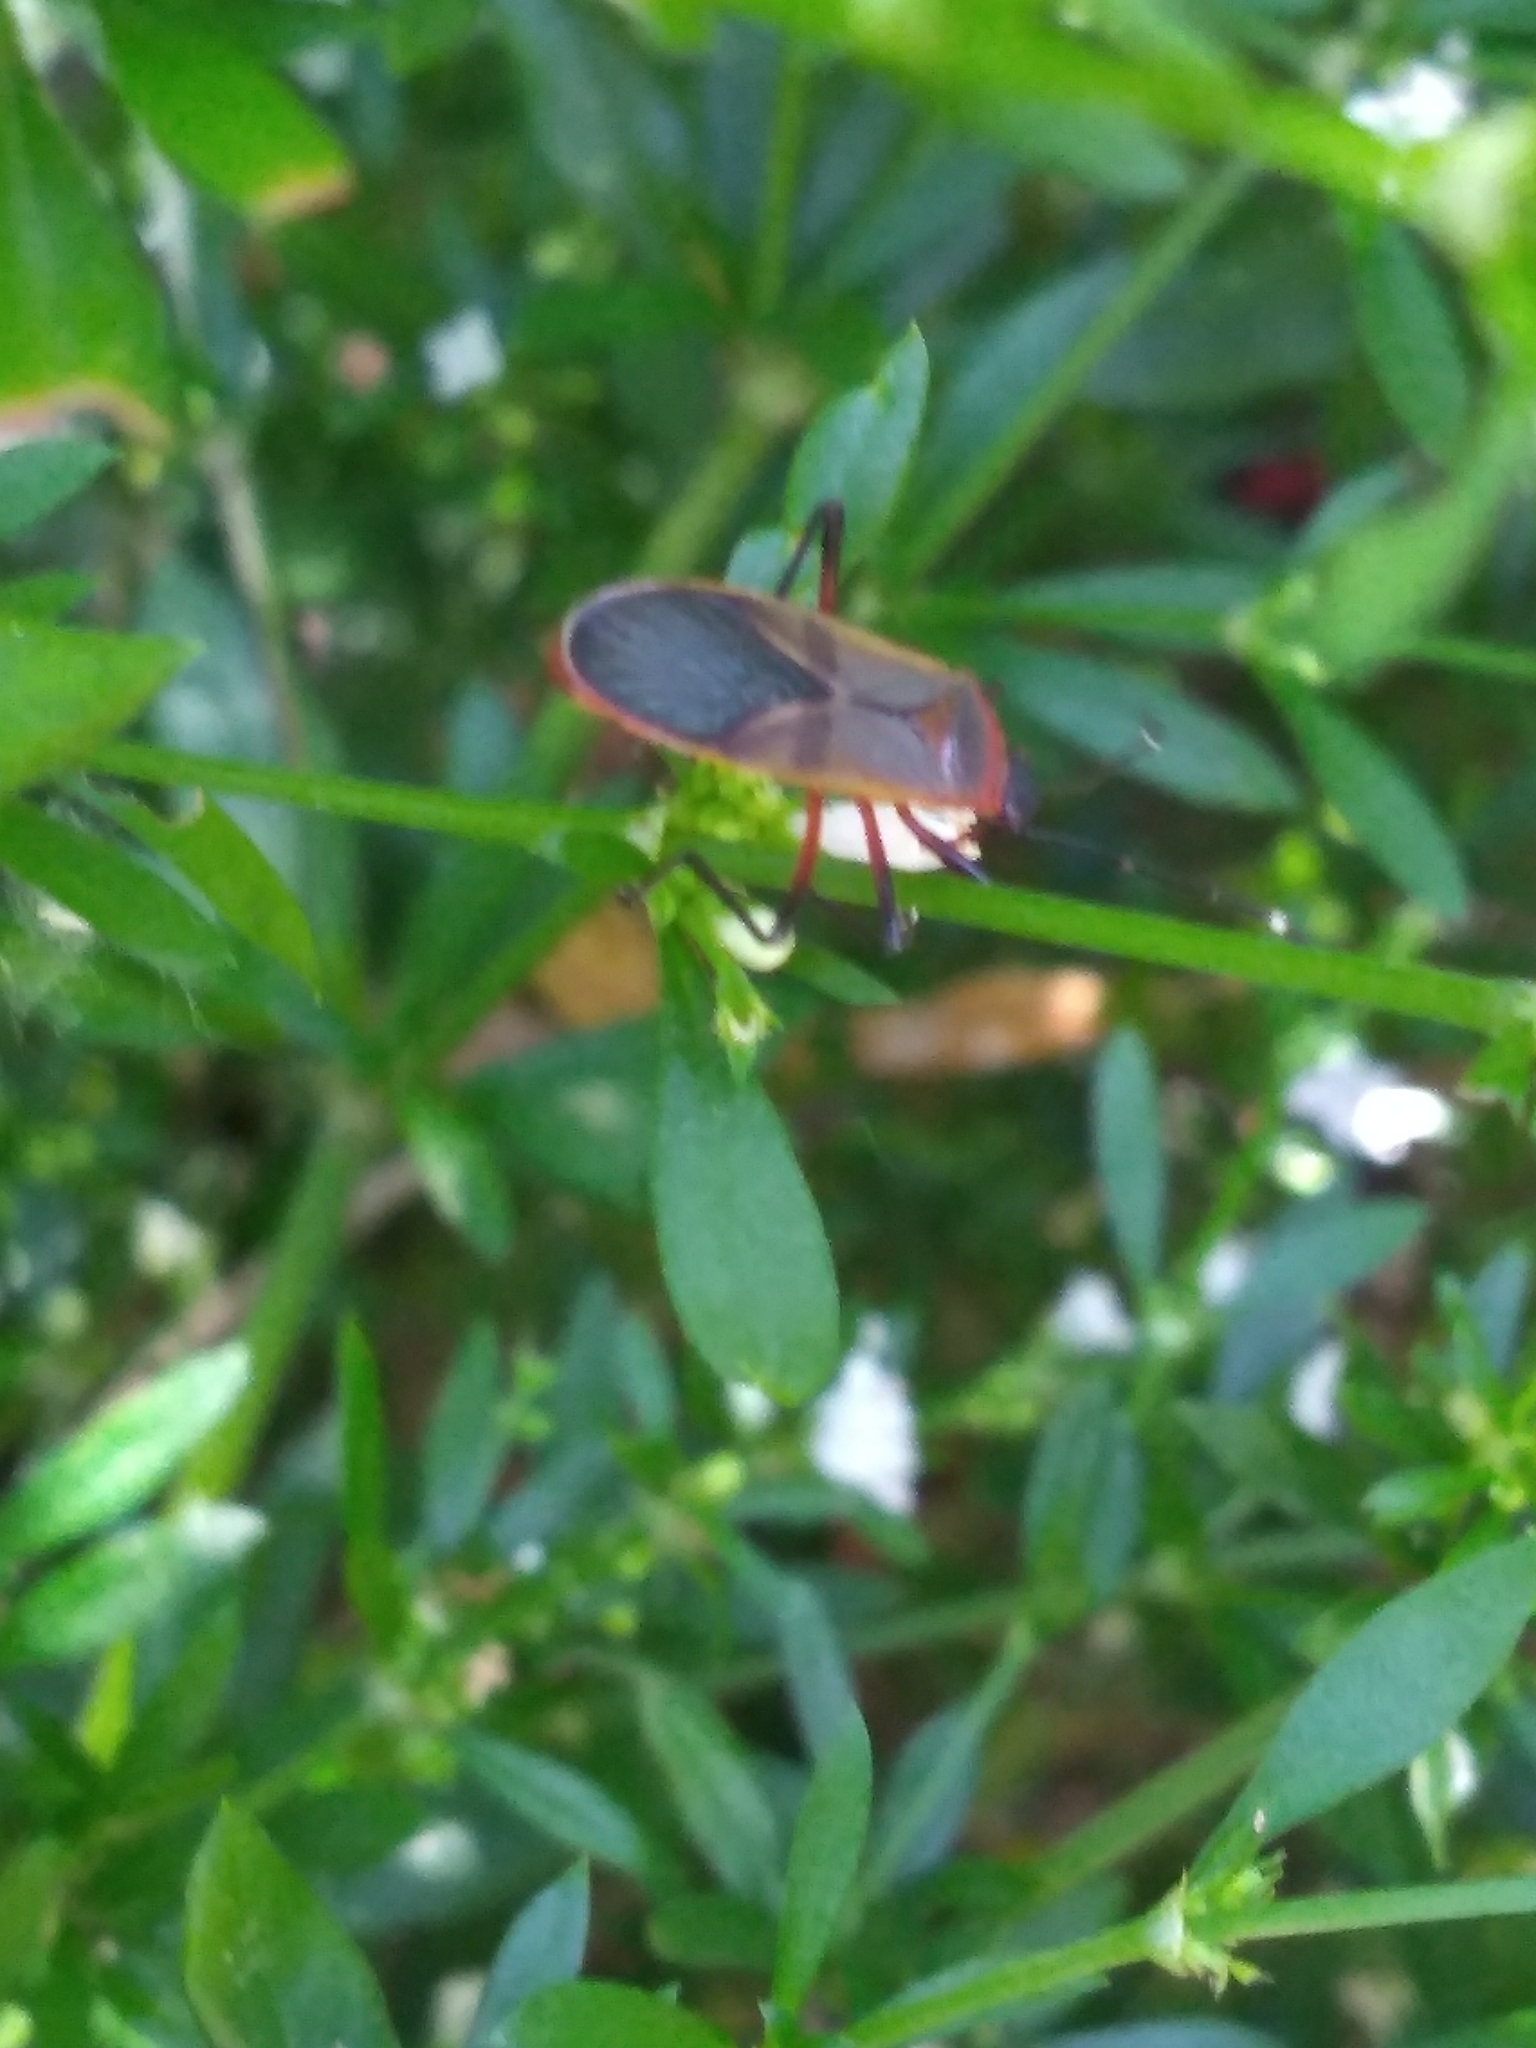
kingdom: Animalia
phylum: Arthropoda
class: Insecta
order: Hemiptera
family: Pyrrhocoridae
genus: Dysdercus
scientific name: Dysdercus
